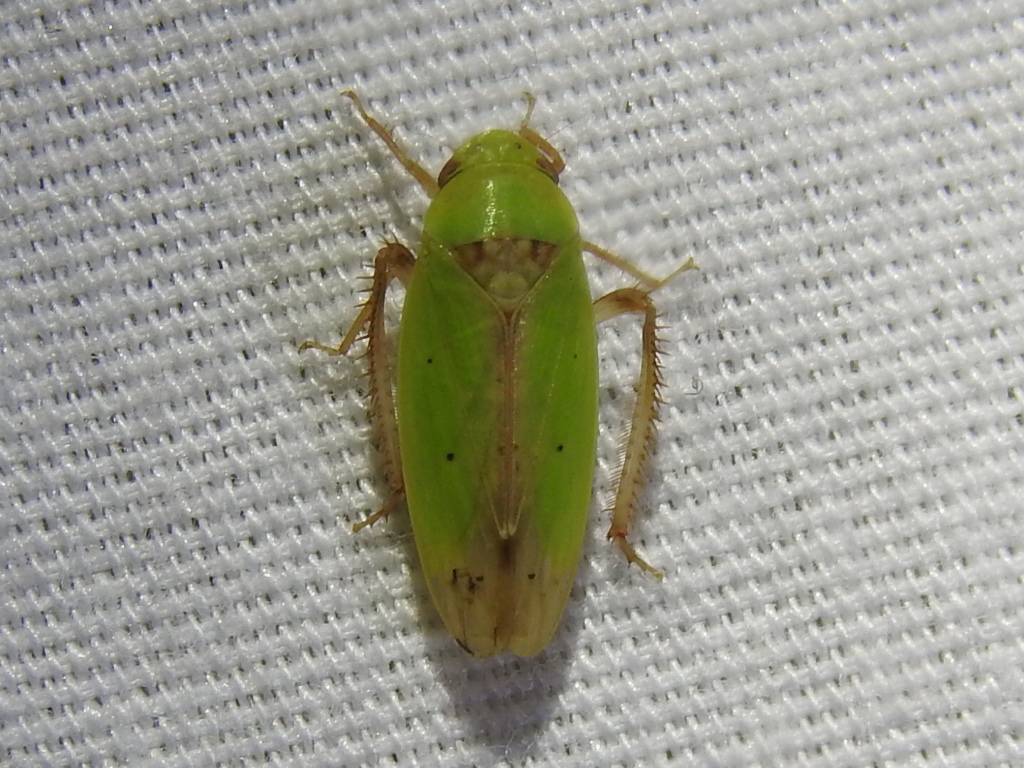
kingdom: Animalia
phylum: Arthropoda
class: Insecta
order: Hemiptera
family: Cicadellidae
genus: Ponana
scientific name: Ponana
